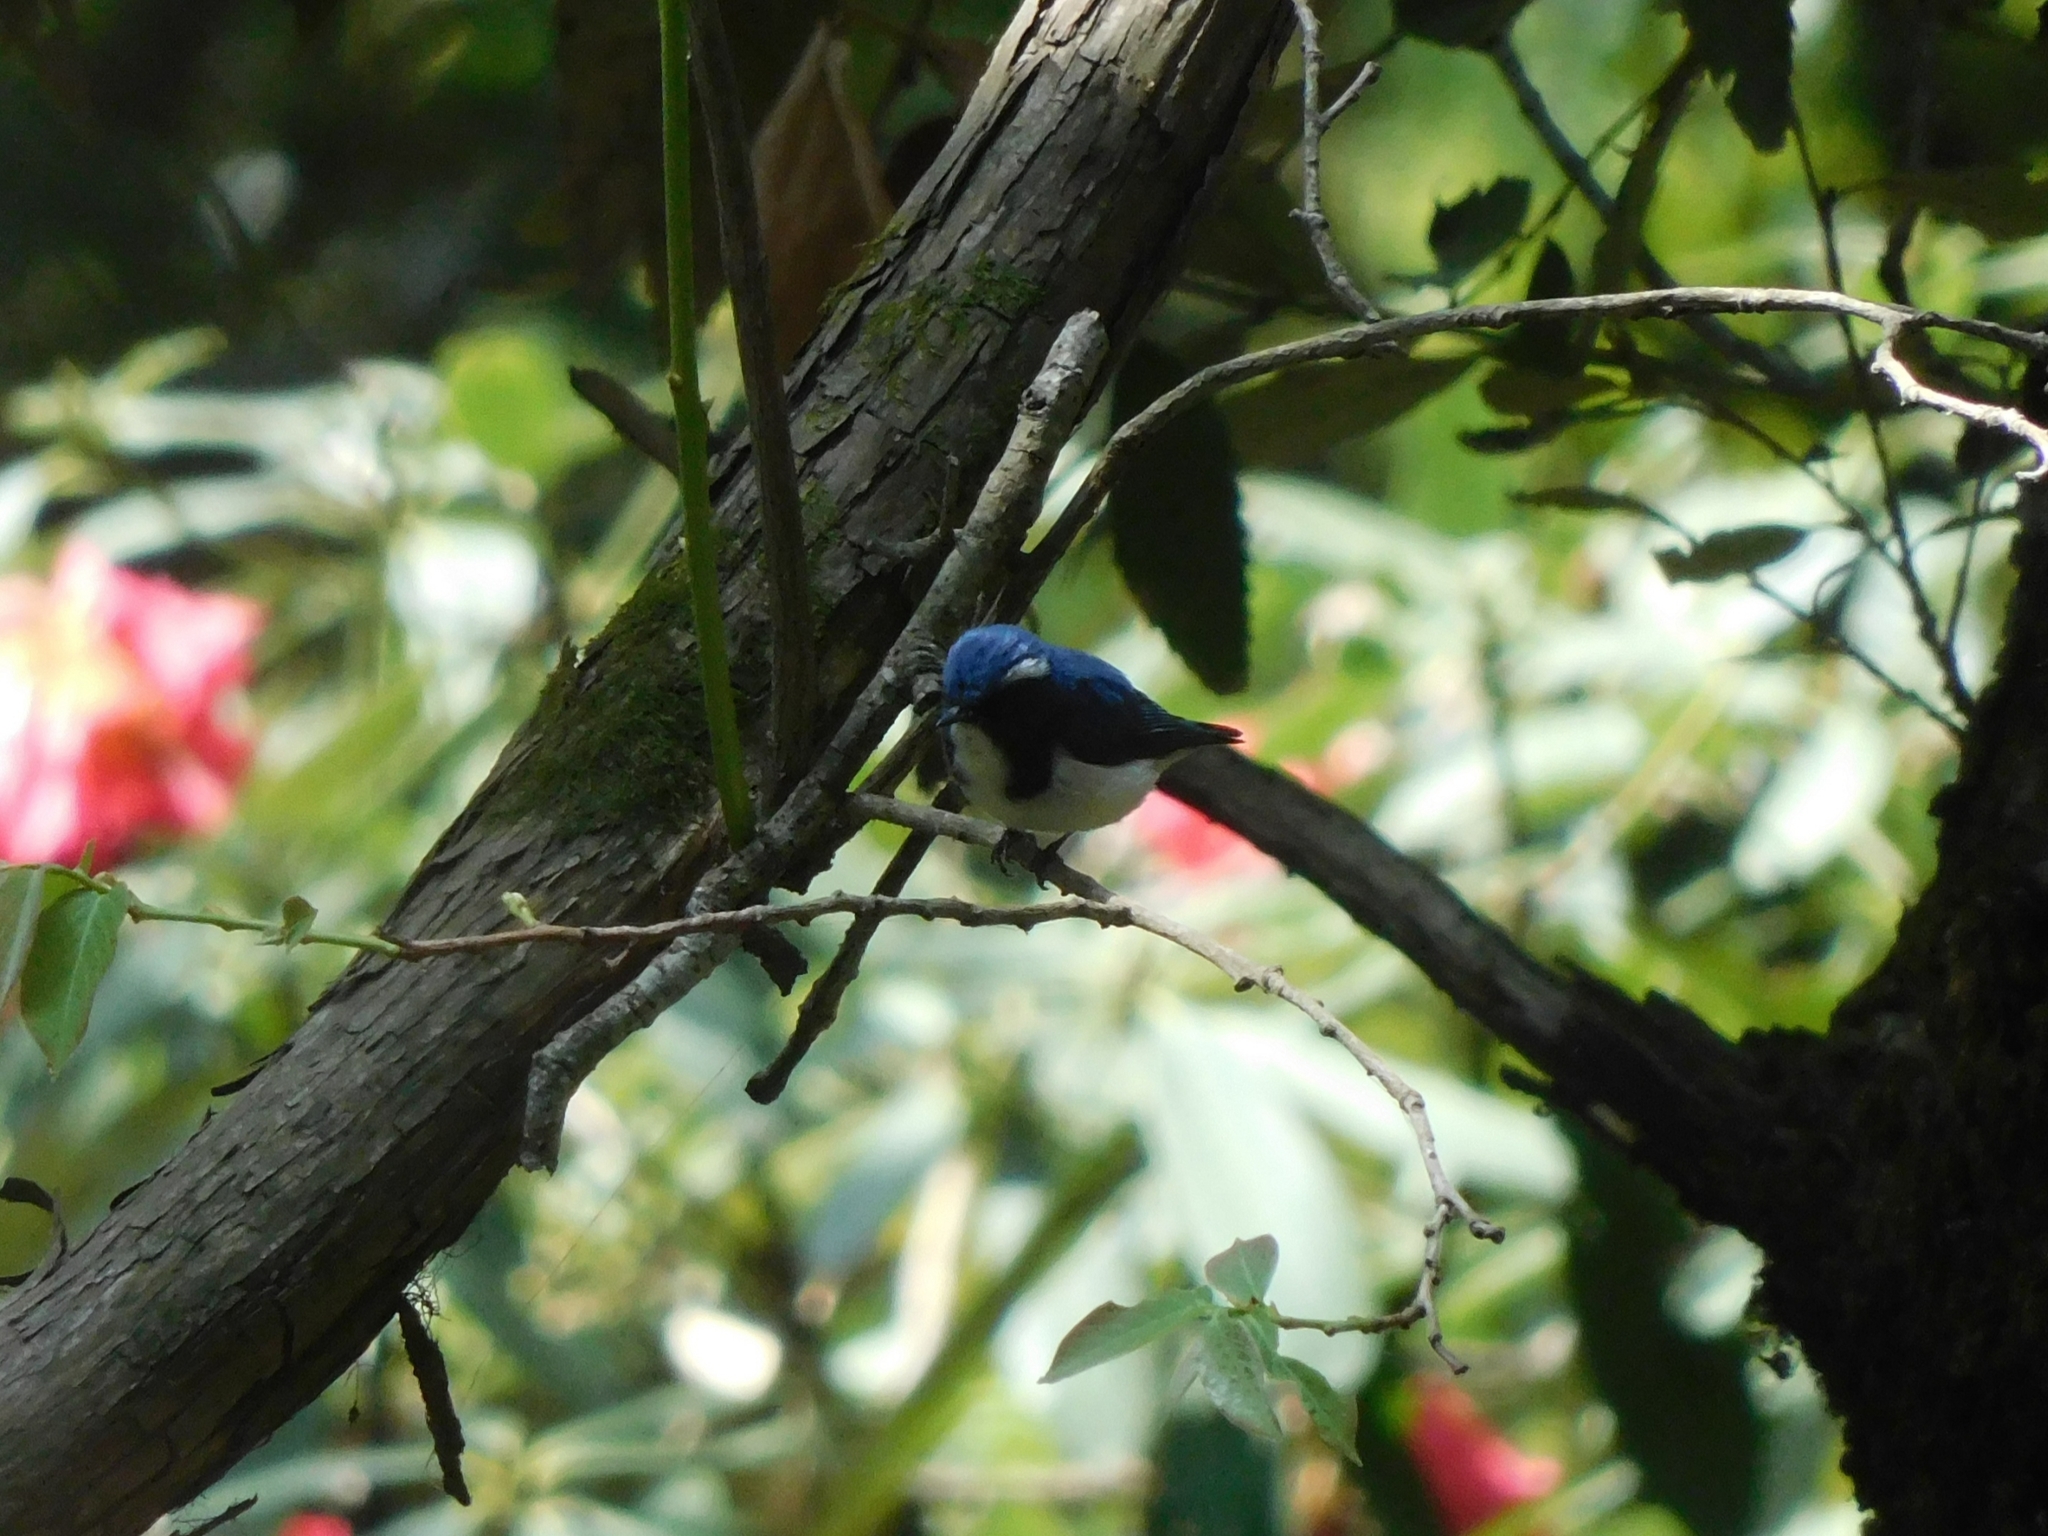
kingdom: Animalia
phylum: Chordata
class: Aves
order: Passeriformes
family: Muscicapidae
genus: Ficedula
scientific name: Ficedula superciliaris
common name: Ultramarine flycatcher
